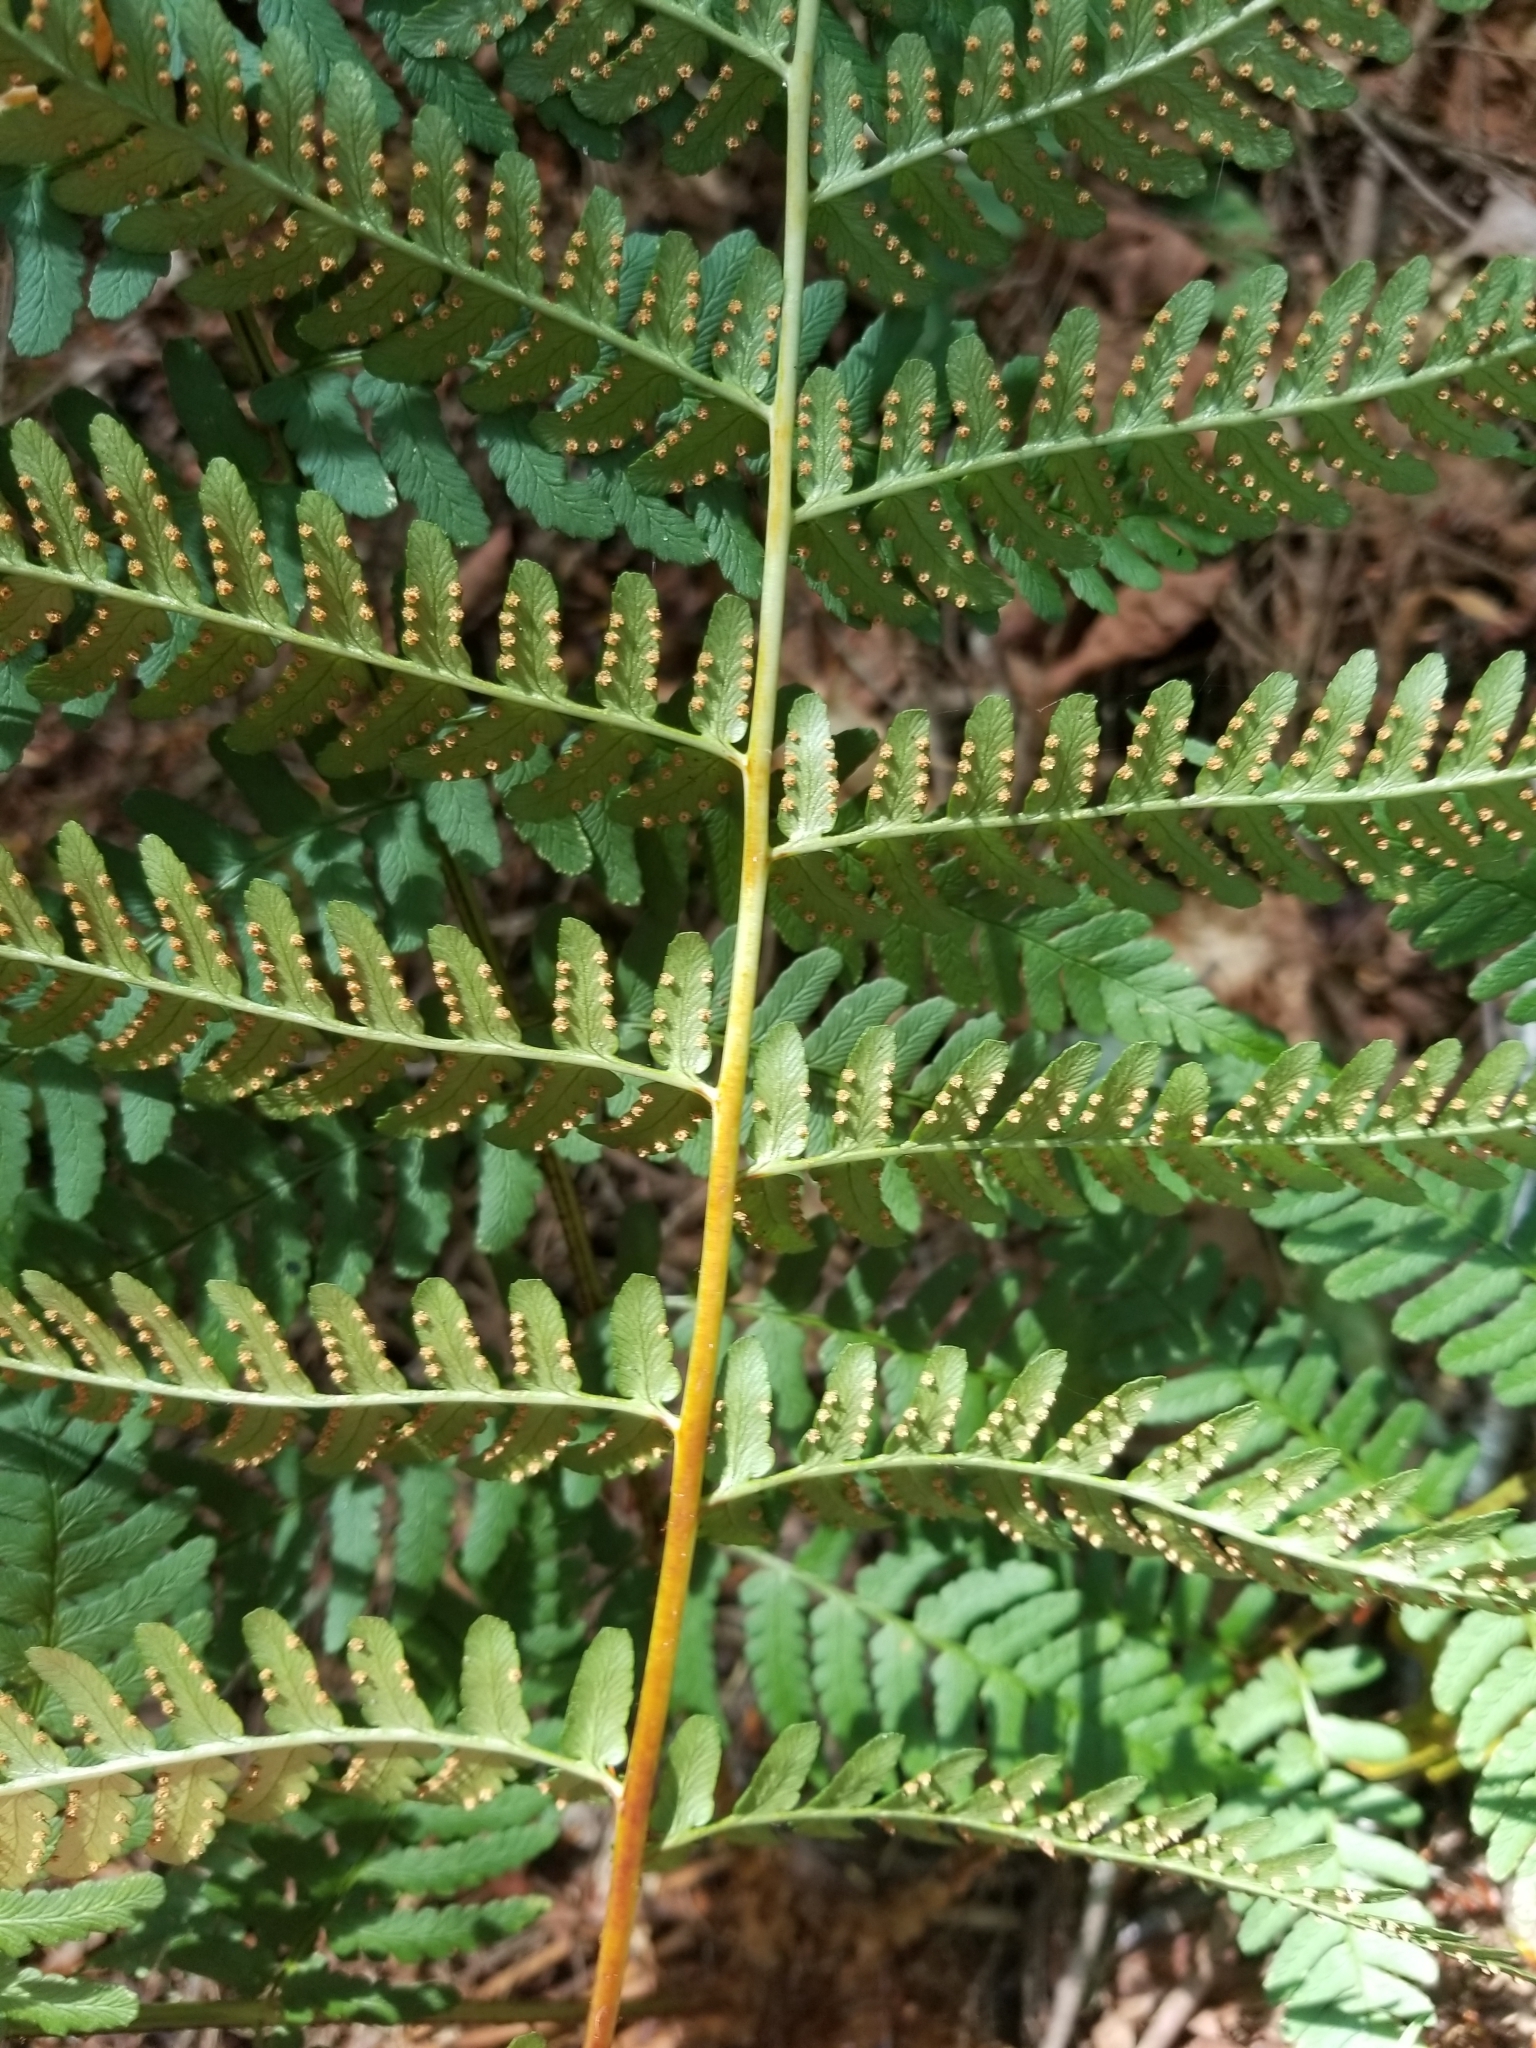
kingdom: Plantae
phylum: Tracheophyta
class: Polypodiopsida
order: Polypodiales
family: Dryopteridaceae
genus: Dryopteris
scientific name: Dryopteris marginalis
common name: Marginal wood fern
